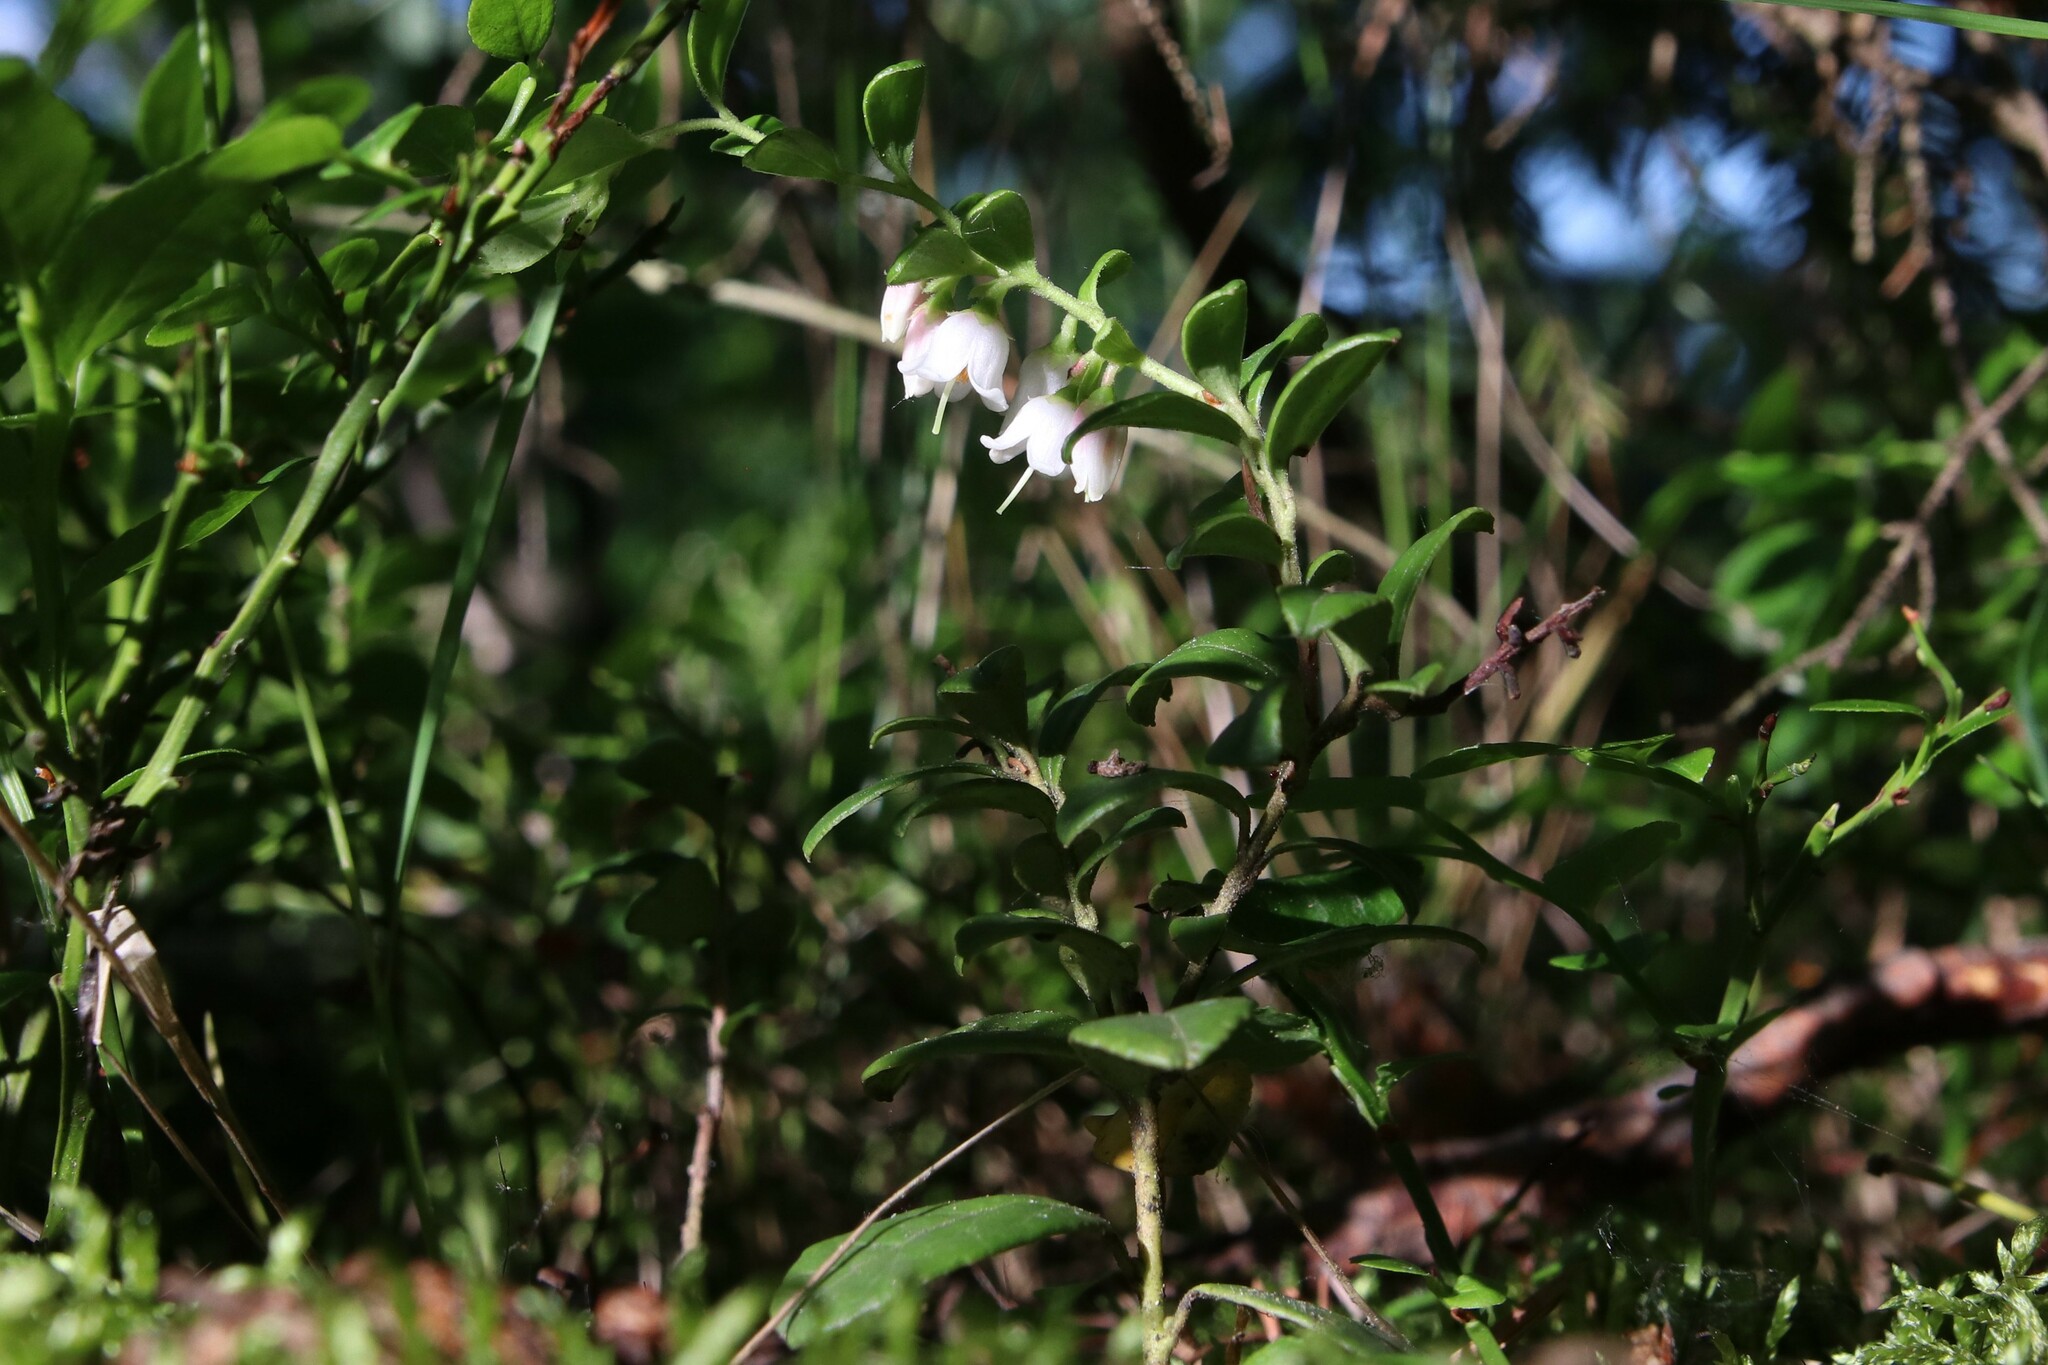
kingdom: Plantae
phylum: Tracheophyta
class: Magnoliopsida
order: Ericales
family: Ericaceae
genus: Vaccinium
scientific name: Vaccinium vitis-idaea
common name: Cowberry
